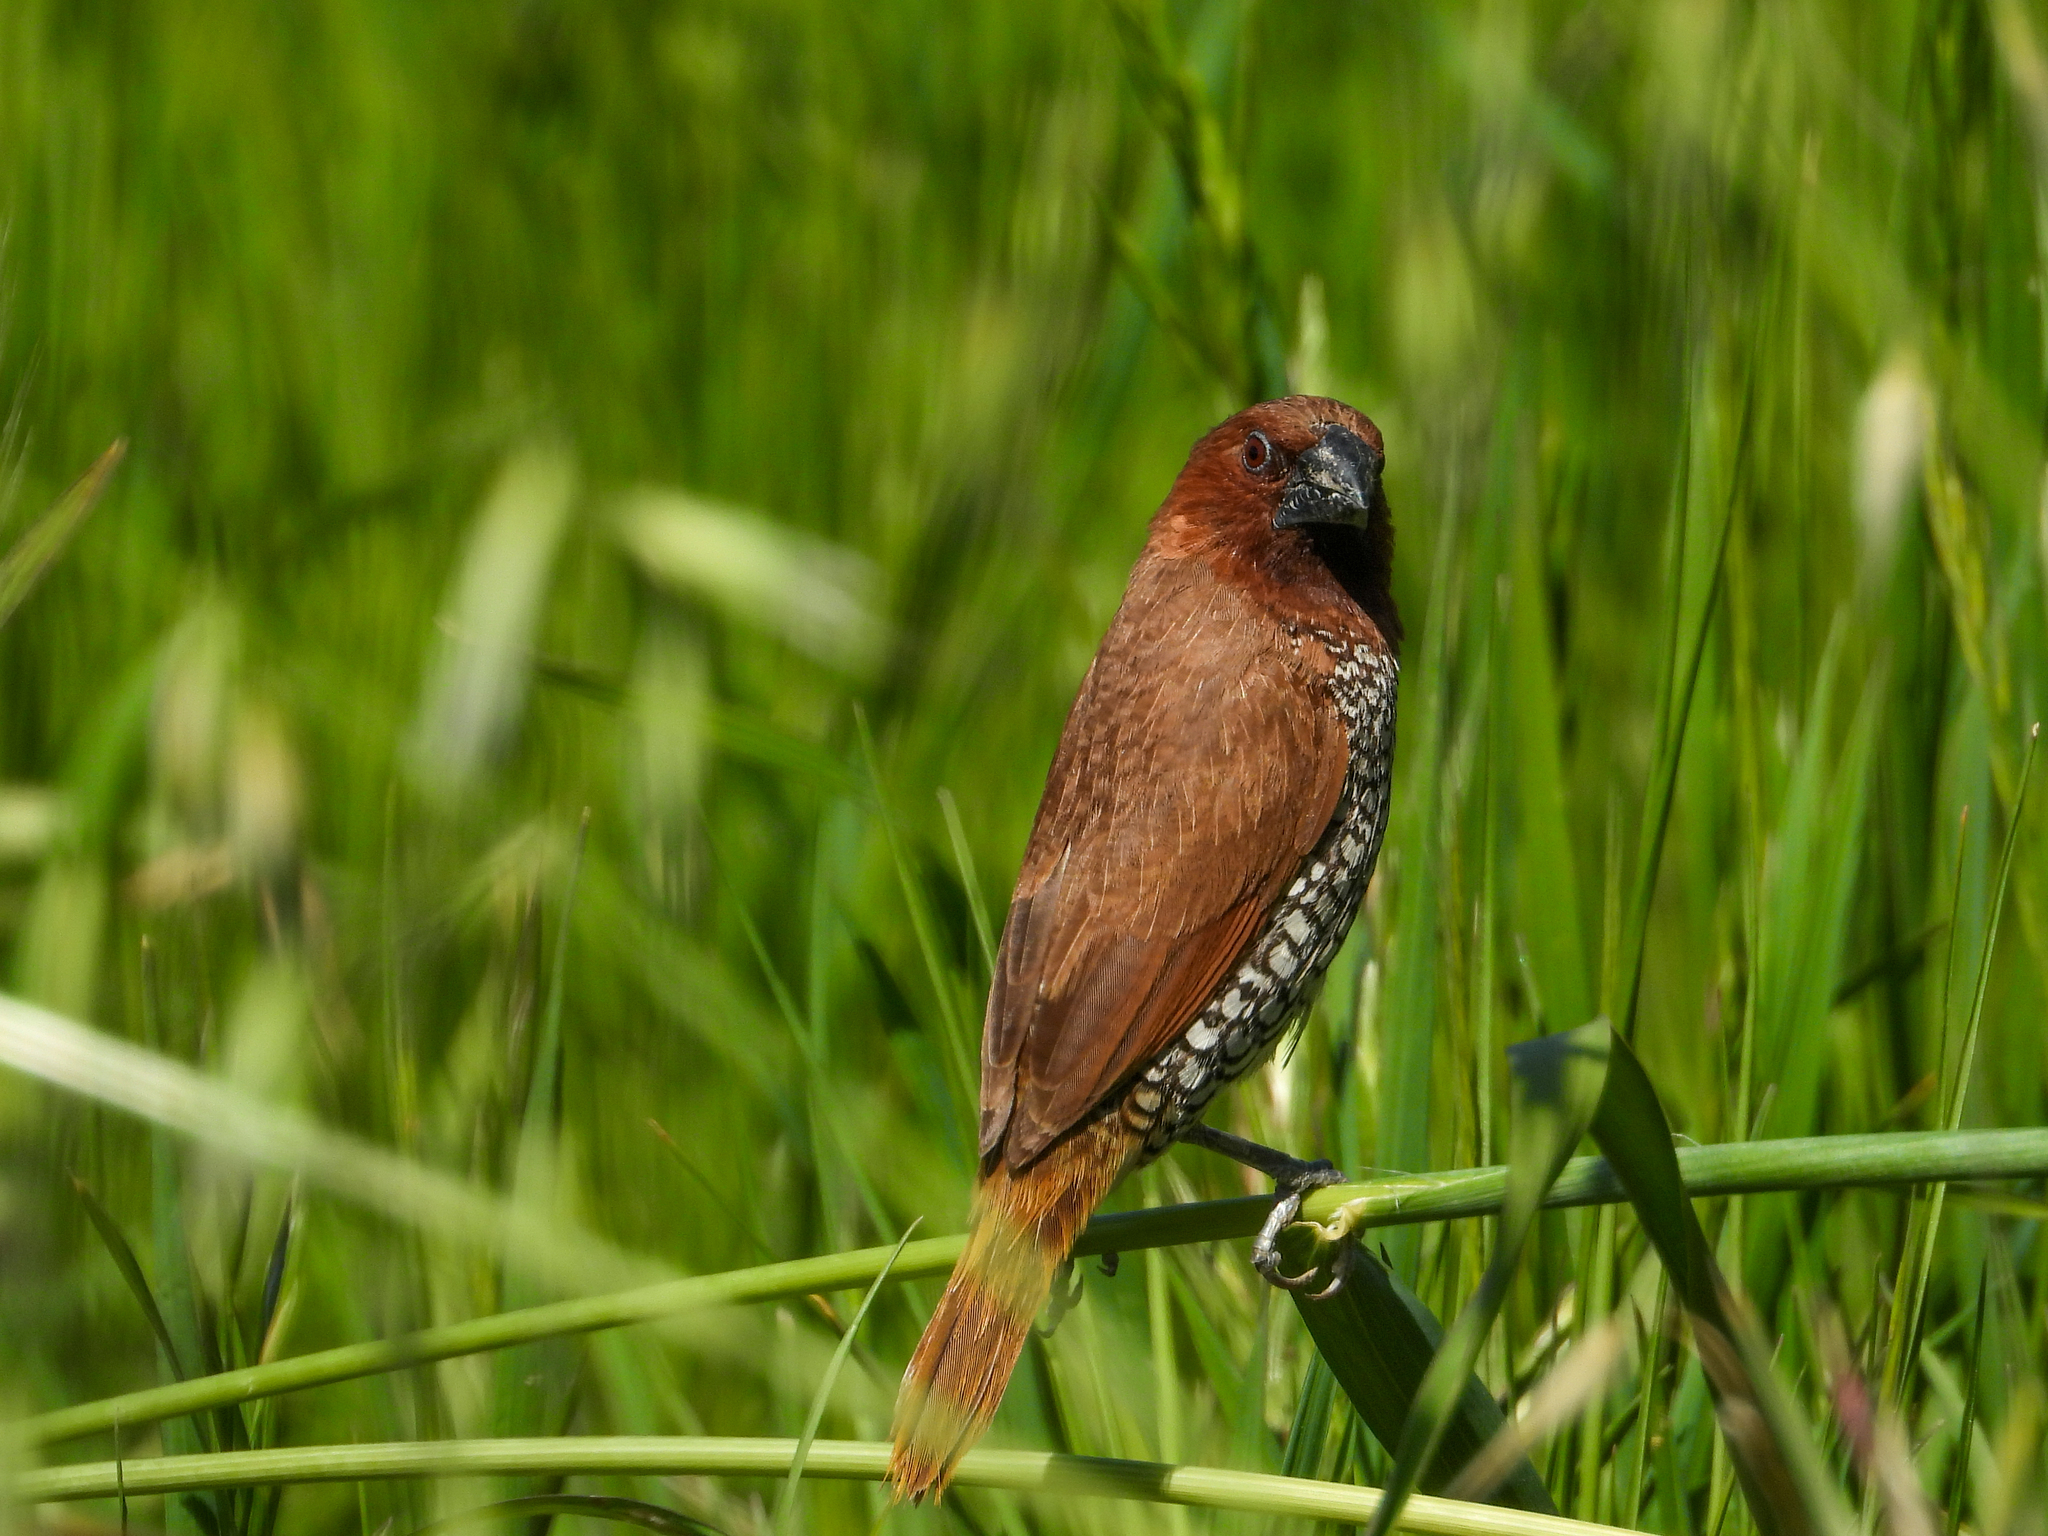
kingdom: Animalia
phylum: Chordata
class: Aves
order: Passeriformes
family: Estrildidae
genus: Lonchura
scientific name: Lonchura punctulata
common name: Scaly-breasted munia
